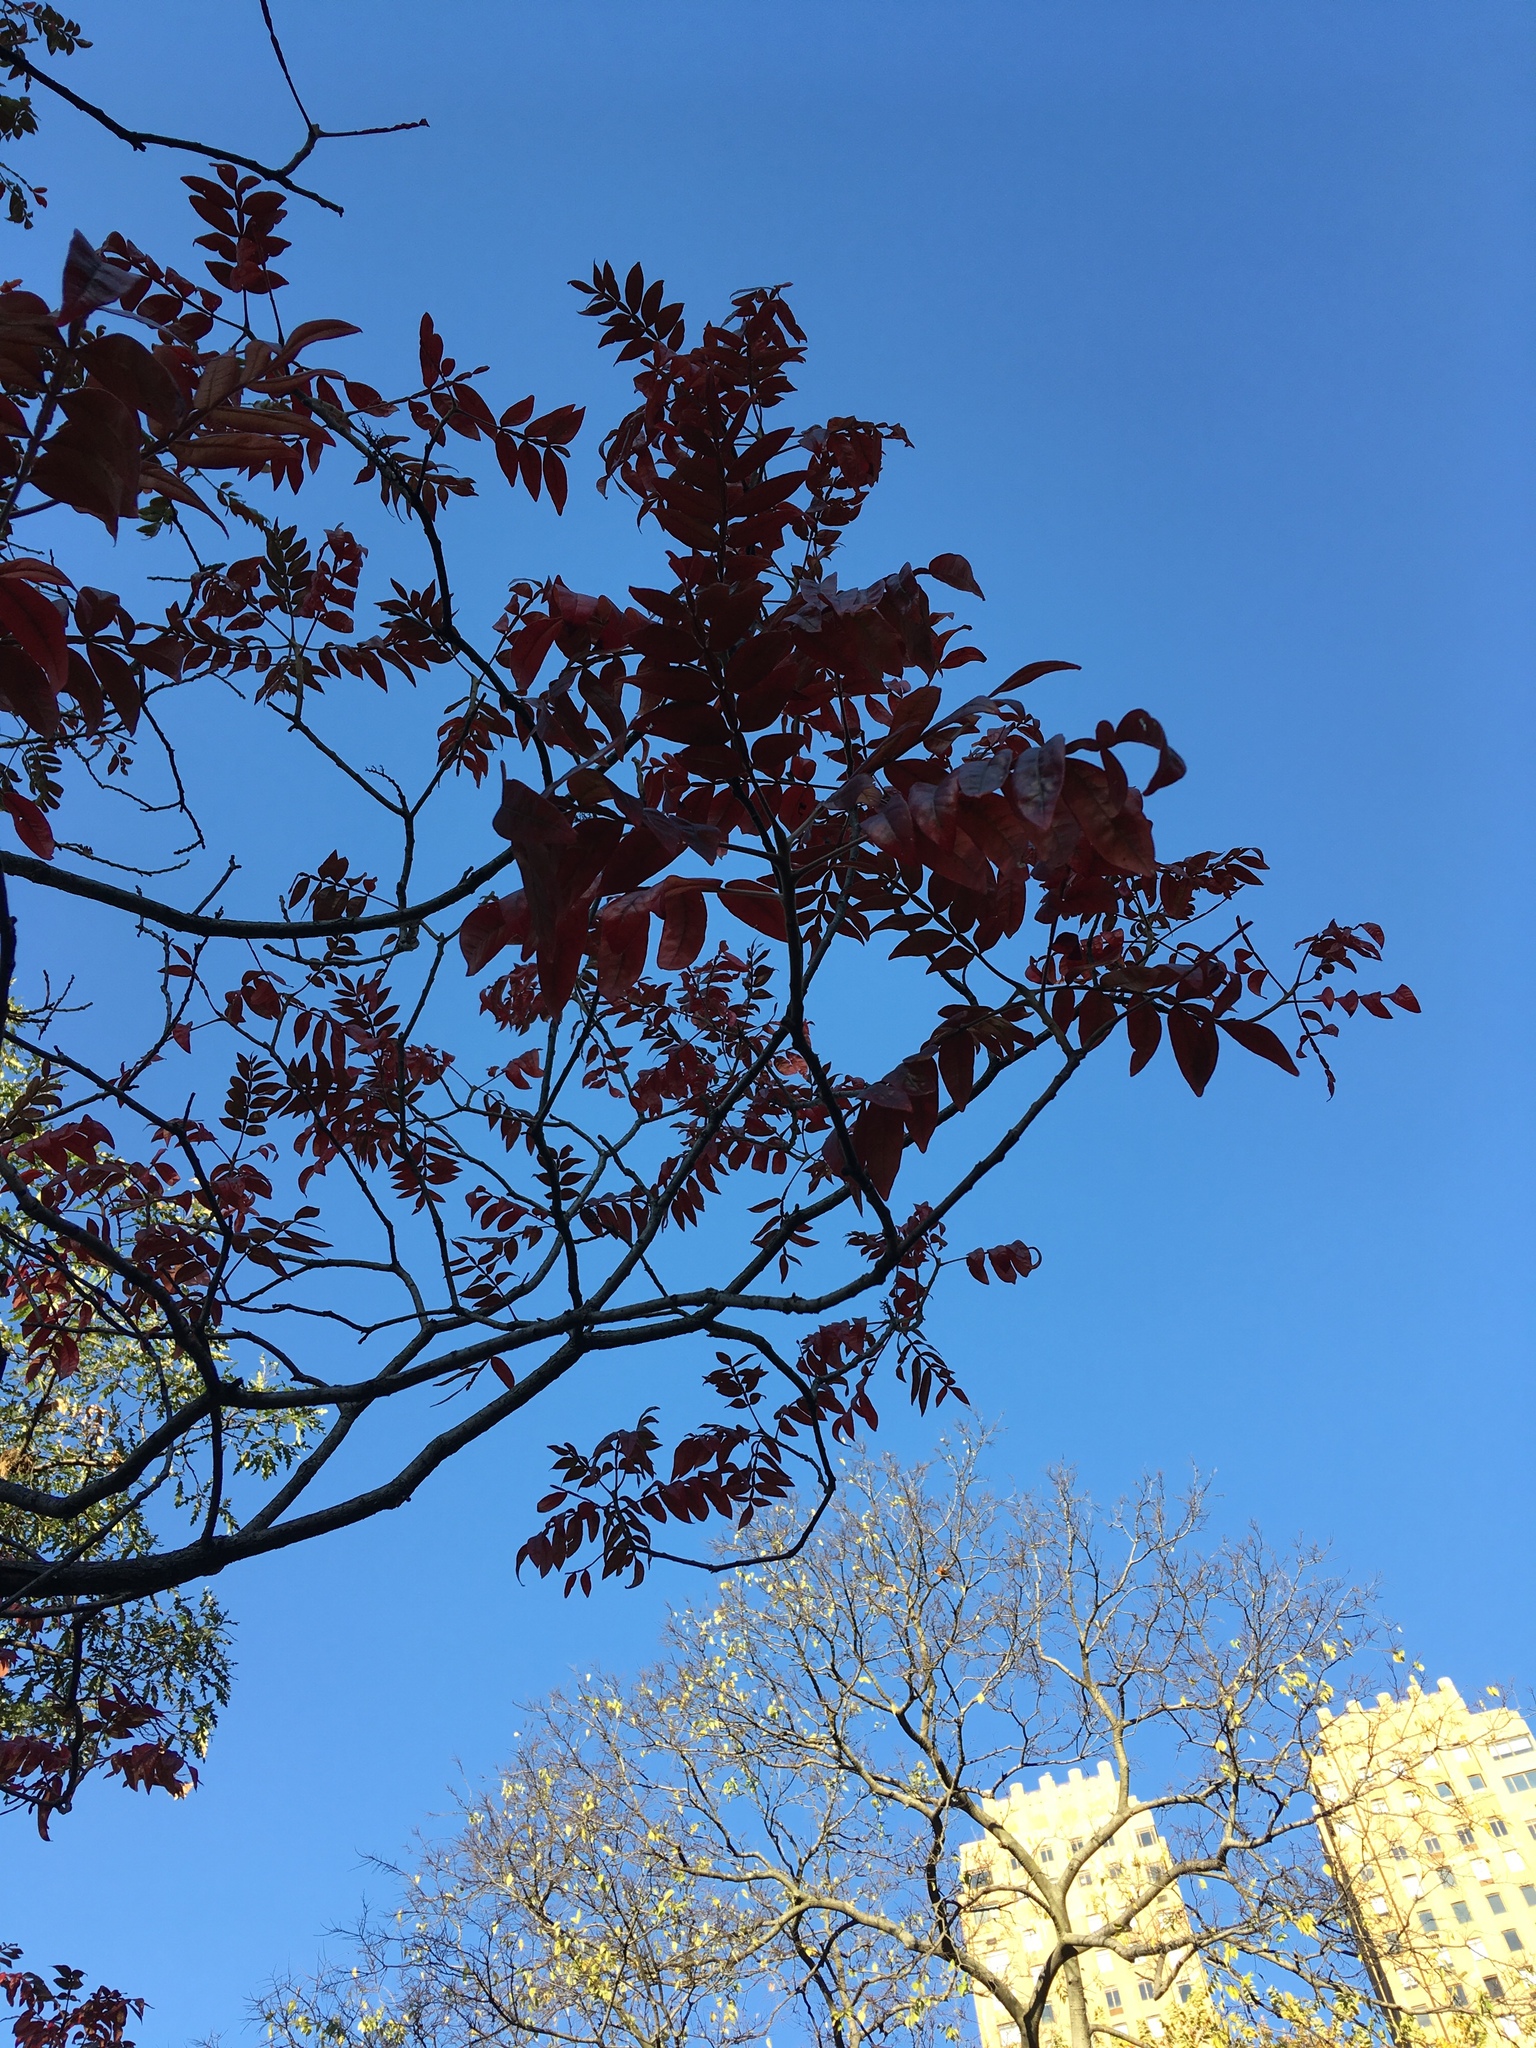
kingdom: Plantae
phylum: Tracheophyta
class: Magnoliopsida
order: Sapindales
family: Anacardiaceae
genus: Rhus
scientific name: Rhus copallina
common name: Shining sumac
